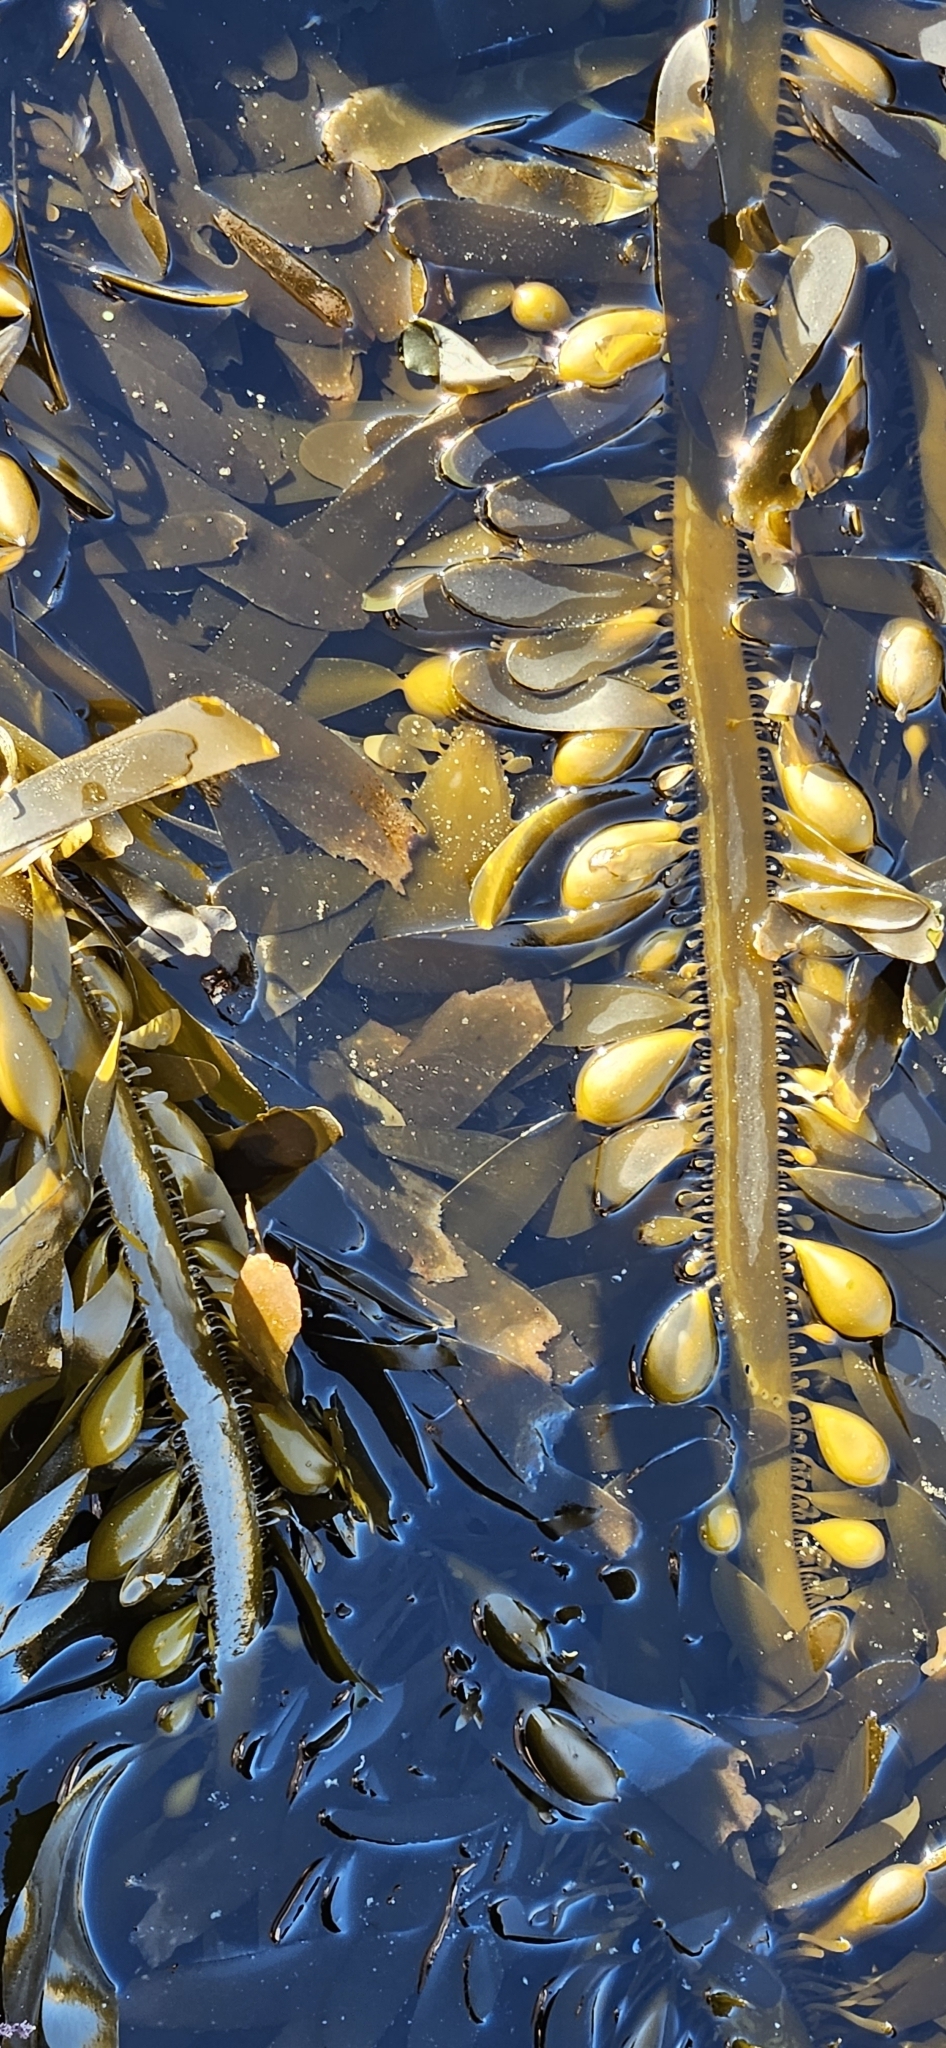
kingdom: Chromista
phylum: Ochrophyta
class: Phaeophyceae
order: Laminariales
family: Lessoniaceae
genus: Egregia
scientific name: Egregia menziesii
